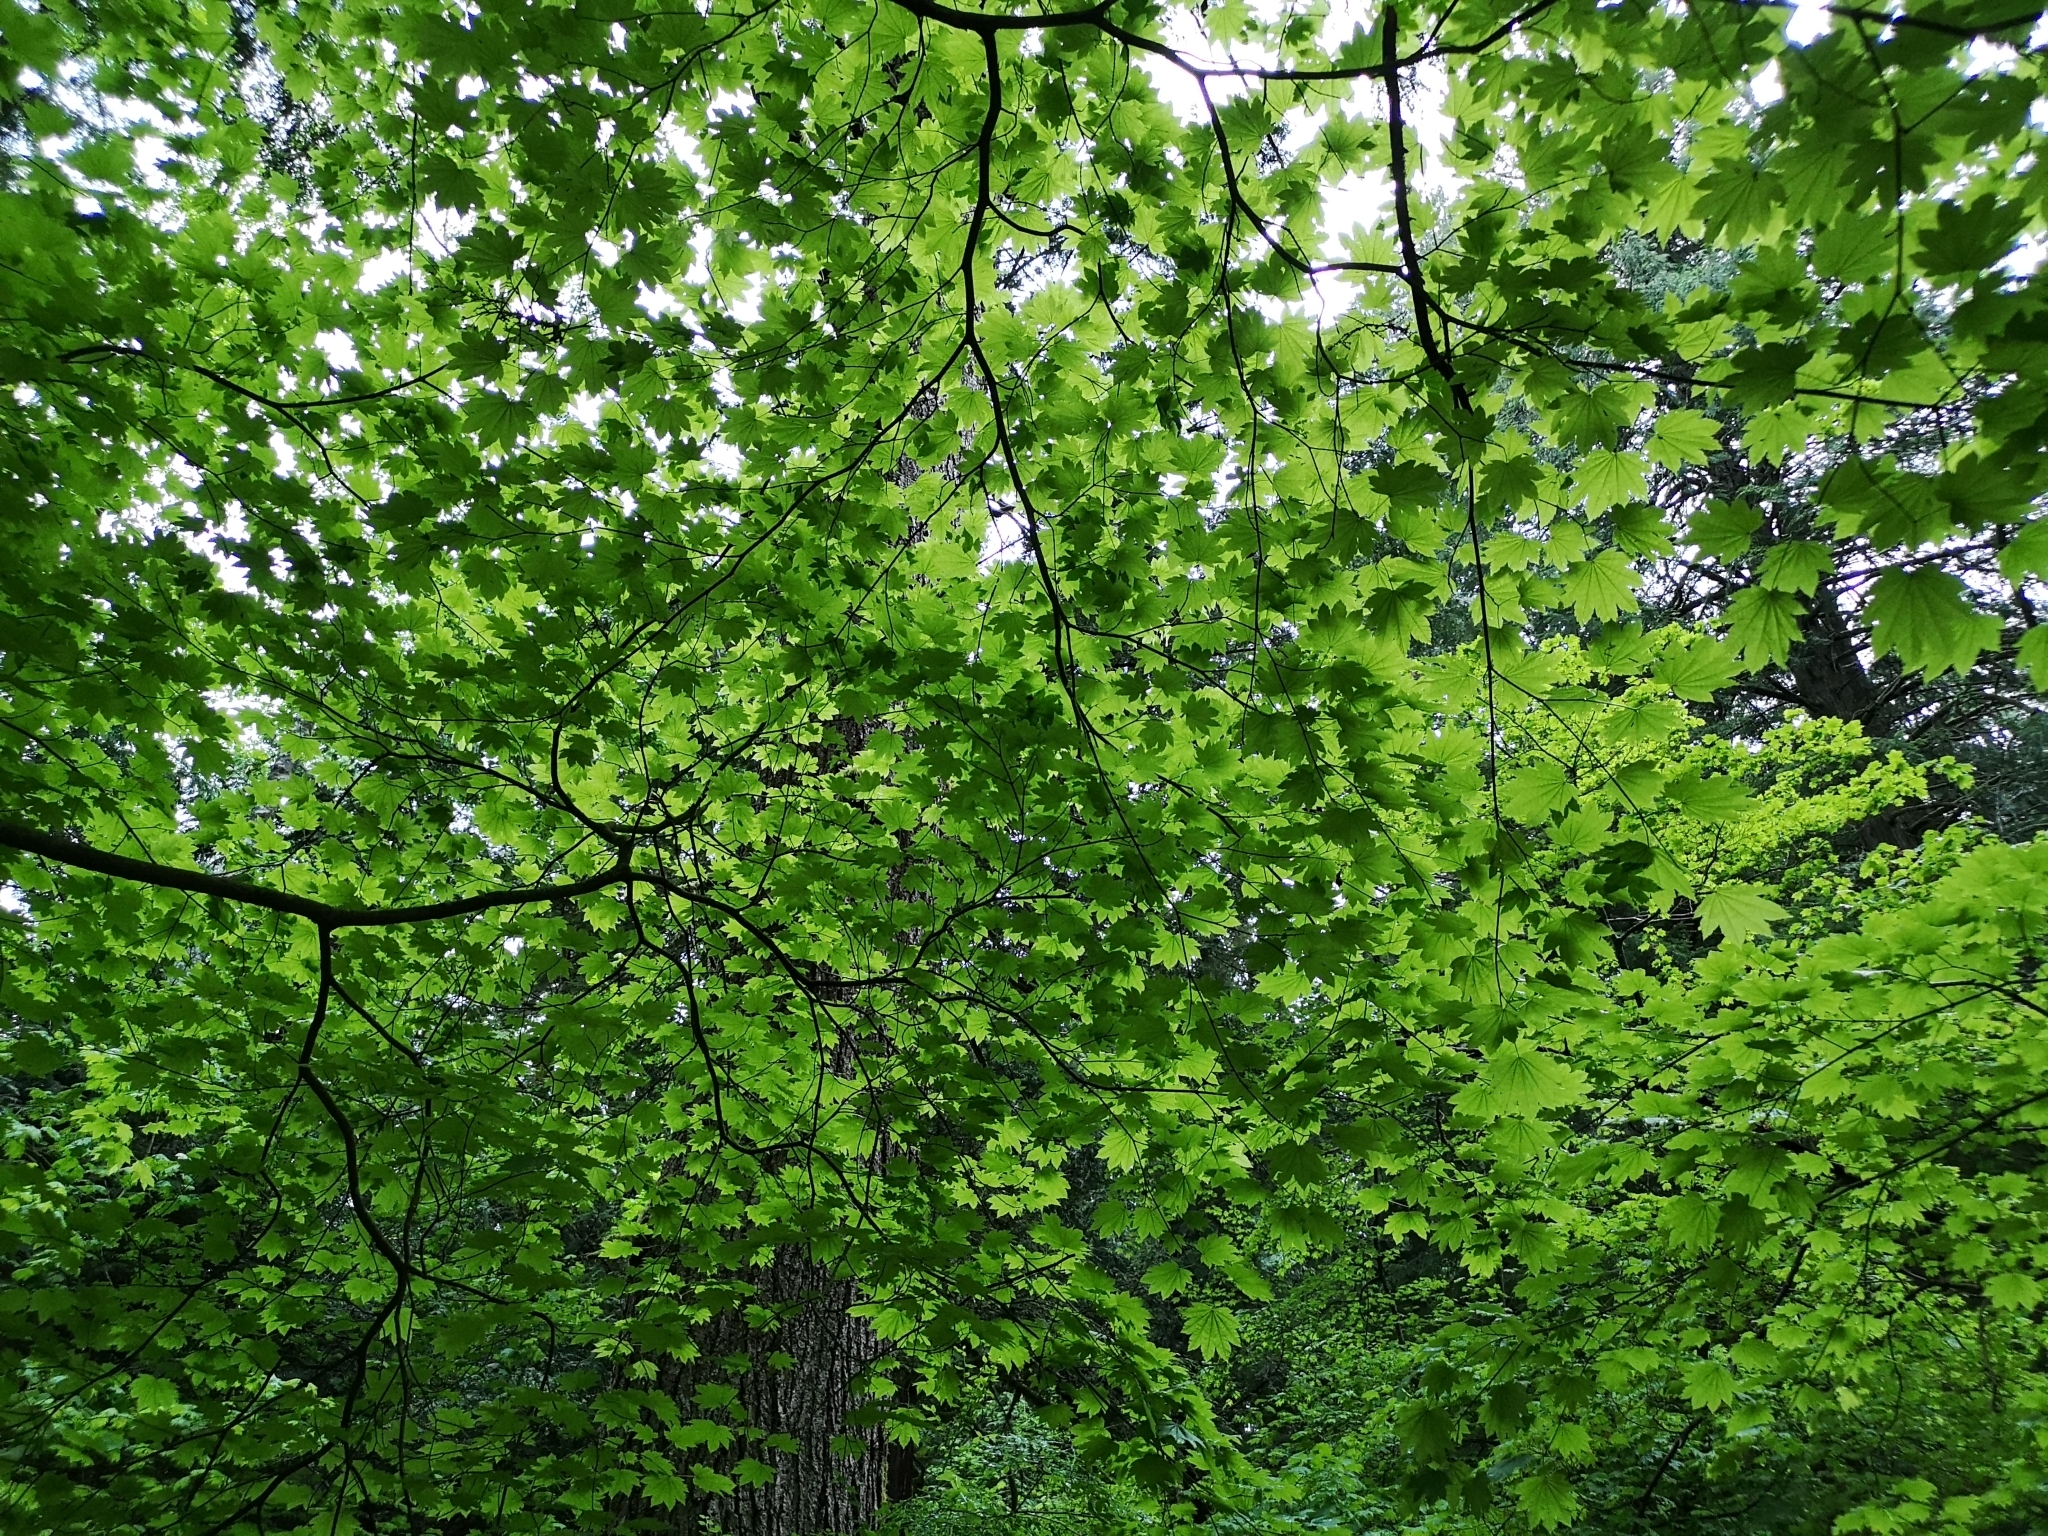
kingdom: Plantae
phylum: Tracheophyta
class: Magnoliopsida
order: Sapindales
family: Sapindaceae
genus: Acer
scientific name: Acer circinatum
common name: Vine maple
